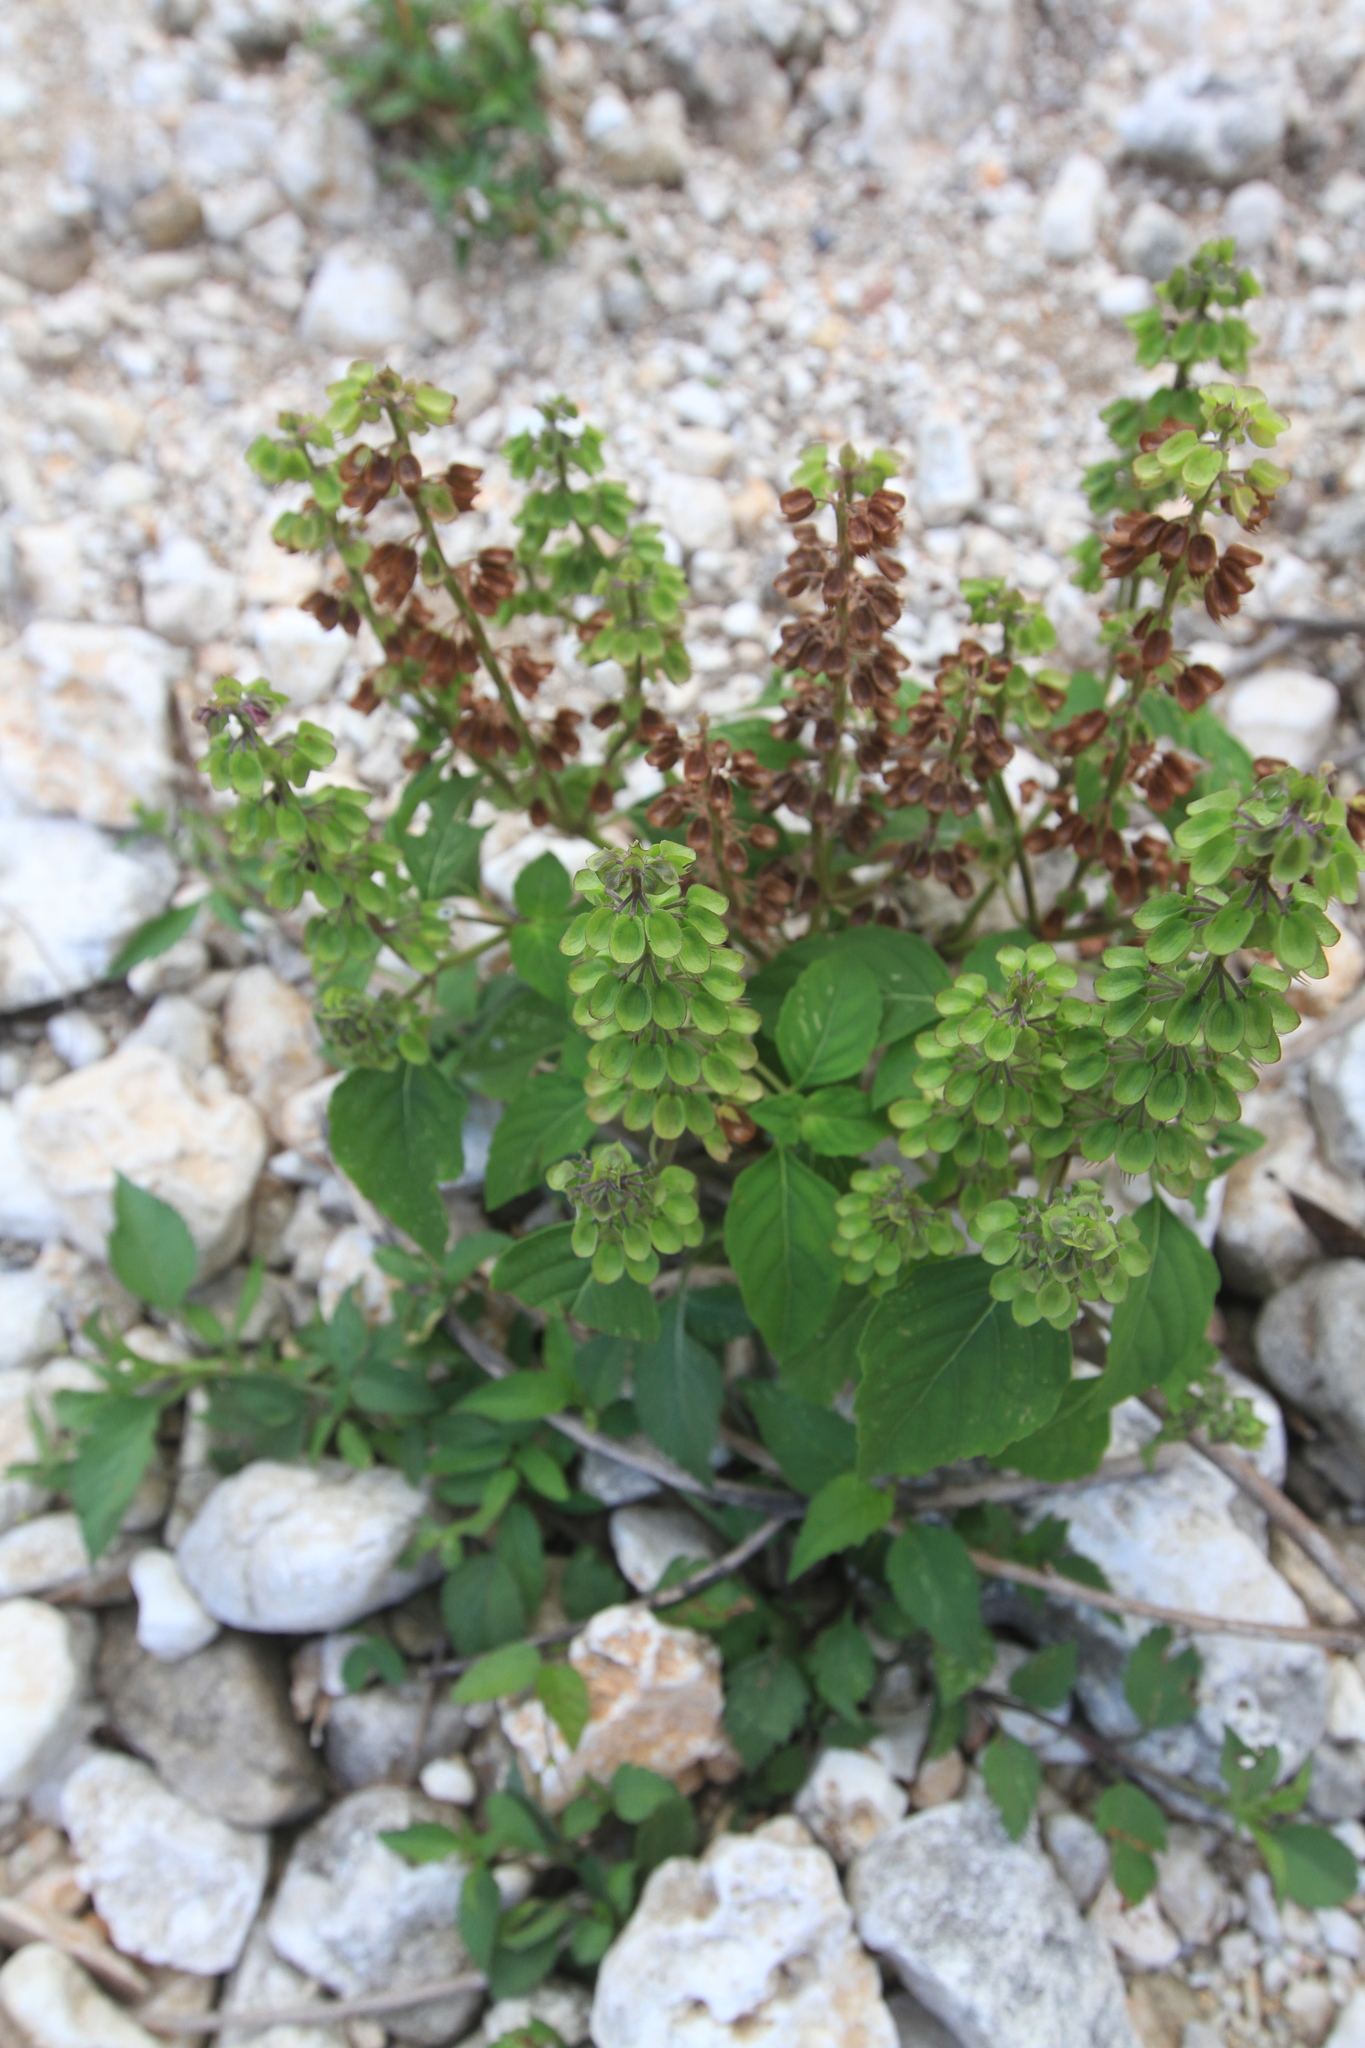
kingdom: Plantae
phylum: Tracheophyta
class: Magnoliopsida
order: Lamiales
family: Lamiaceae
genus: Ocimum
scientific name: Ocimum campechianum
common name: Mosquito basil
